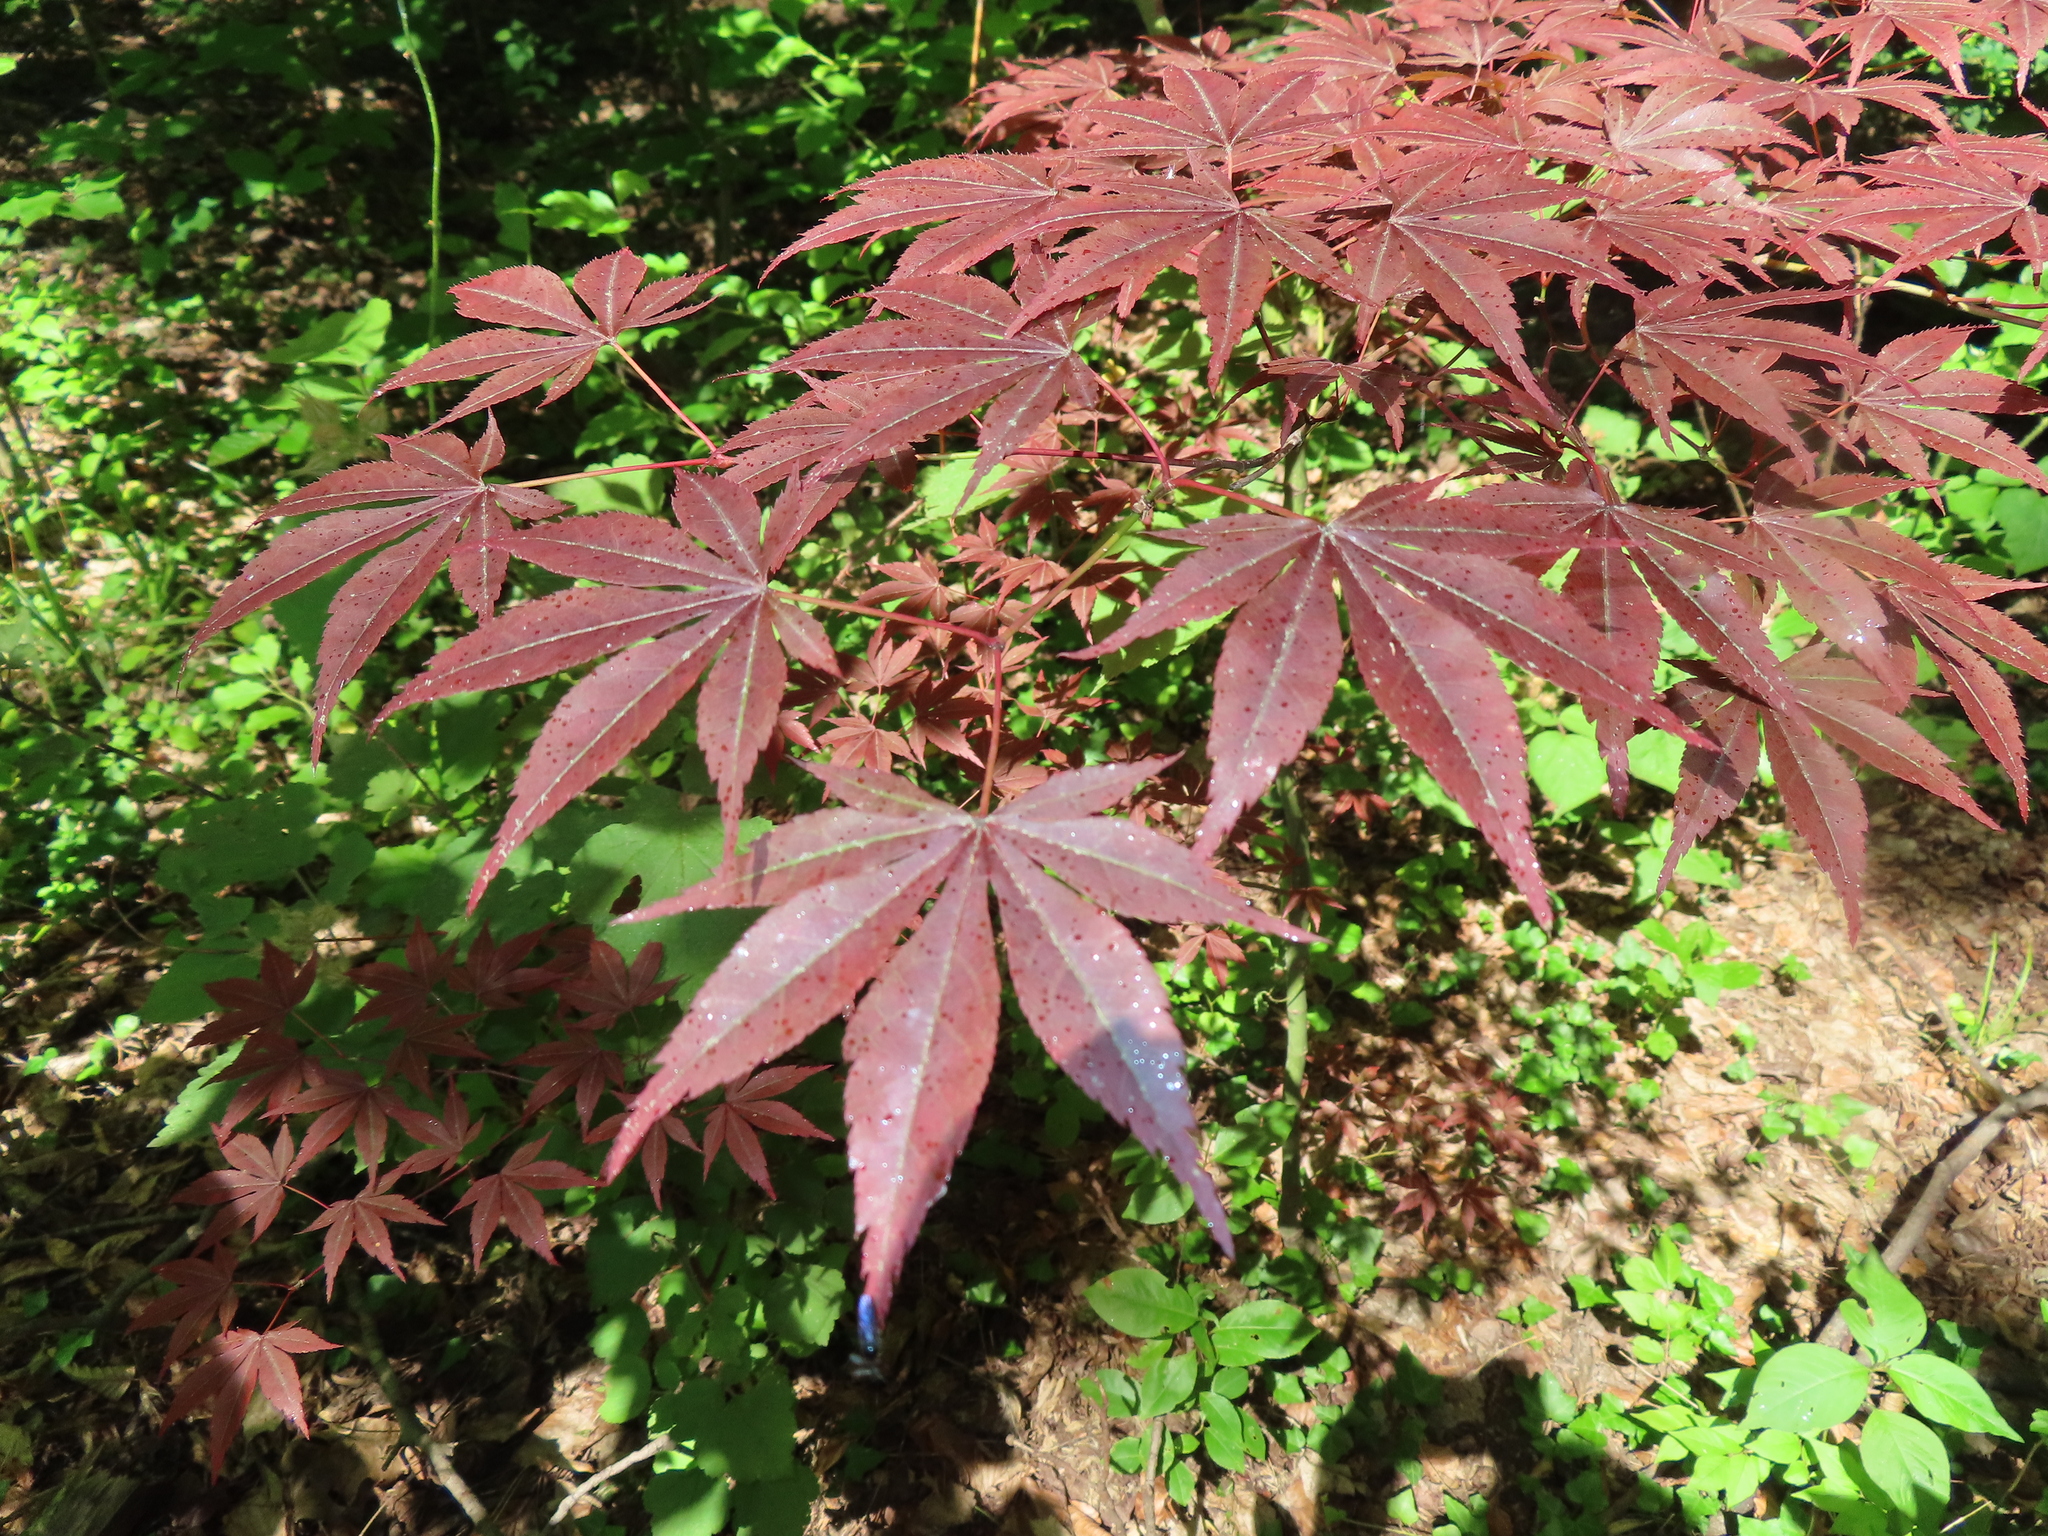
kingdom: Plantae
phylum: Tracheophyta
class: Magnoliopsida
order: Sapindales
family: Sapindaceae
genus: Acer
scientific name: Acer palmatum
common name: Japanese maple
